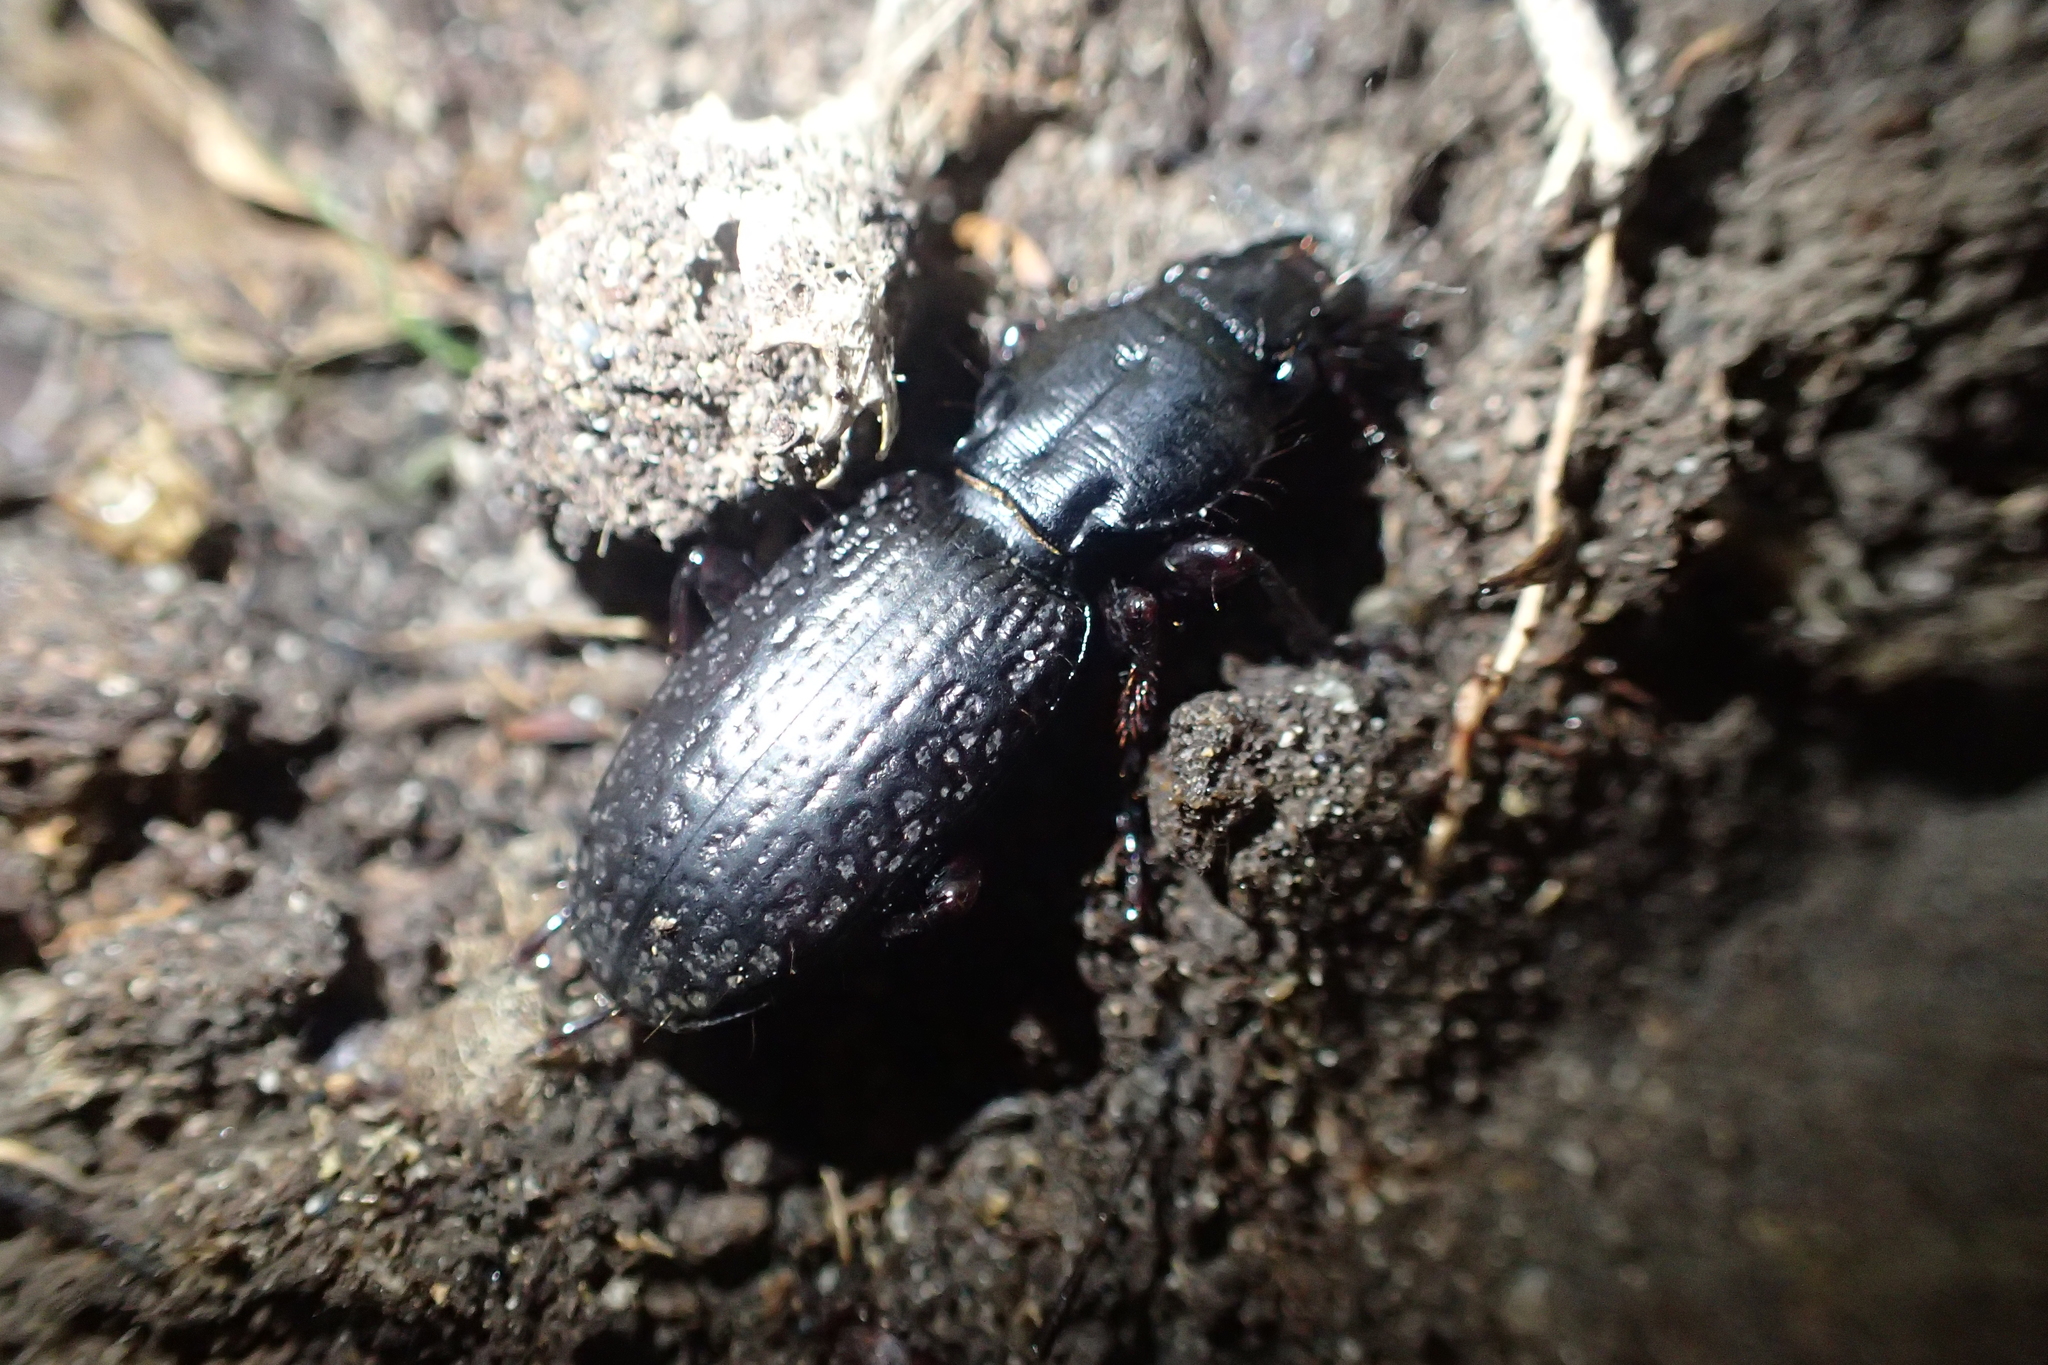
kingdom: Animalia
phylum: Arthropoda
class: Insecta
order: Coleoptera
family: Carabidae
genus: Mecodema
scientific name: Mecodema crenicolle
